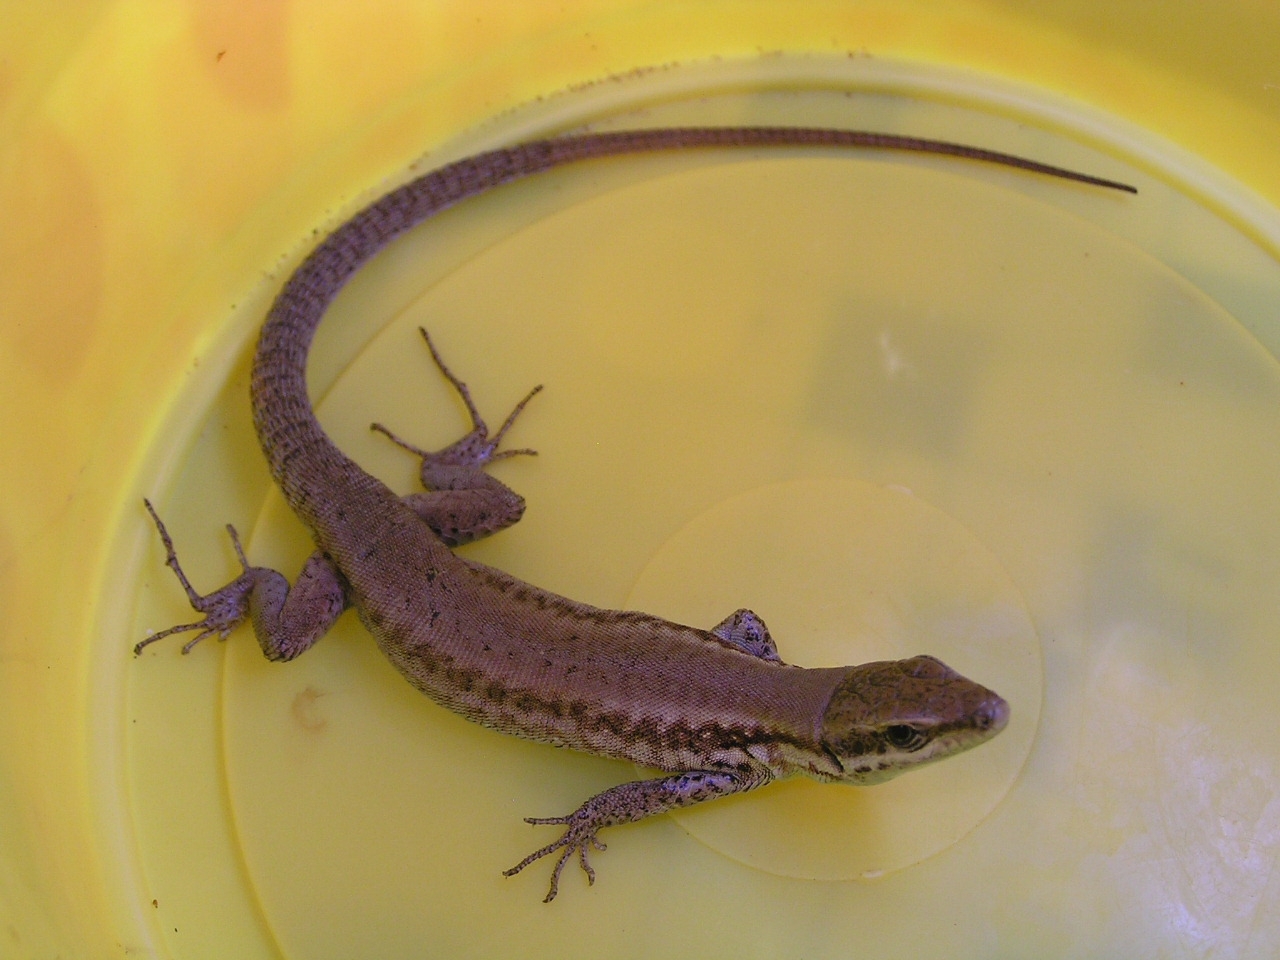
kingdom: Animalia
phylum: Chordata
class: Squamata
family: Lacertidae
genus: Phoenicolacerta
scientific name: Phoenicolacerta laevis
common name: Lebanon lizard
